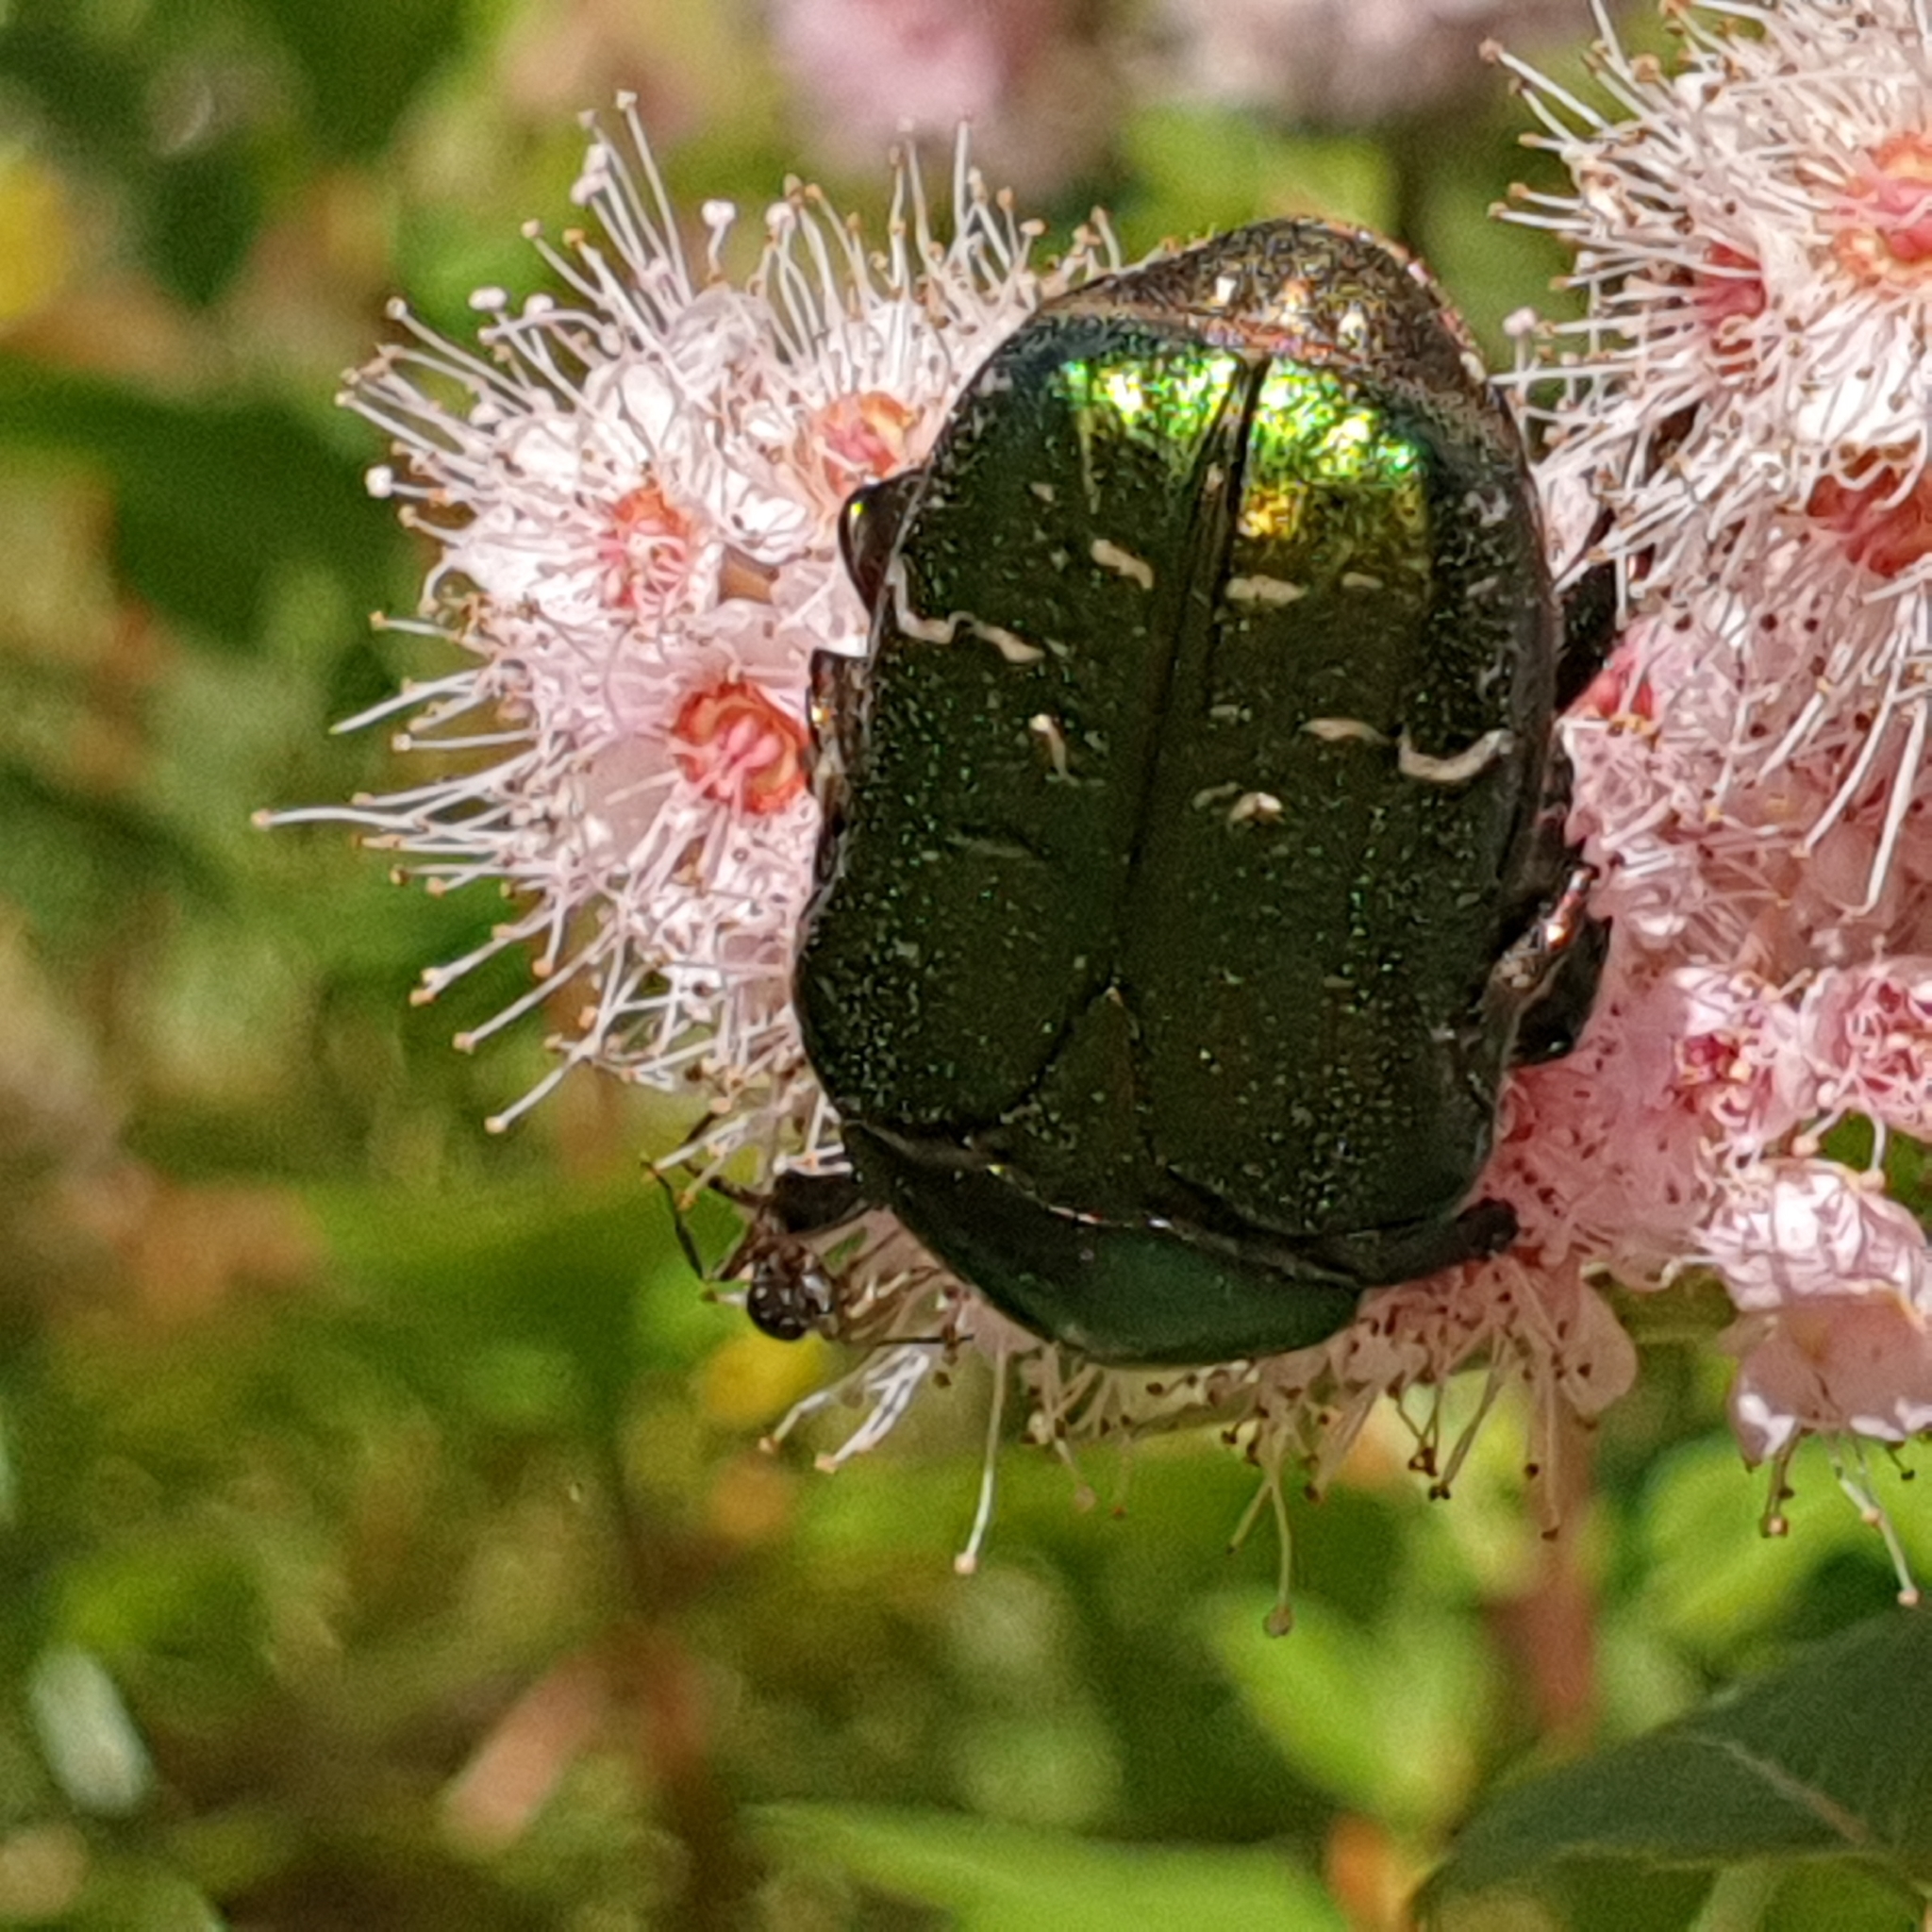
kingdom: Animalia
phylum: Arthropoda
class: Insecta
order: Coleoptera
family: Scarabaeidae
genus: Cetonia
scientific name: Cetonia aurata
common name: Rose chafer
